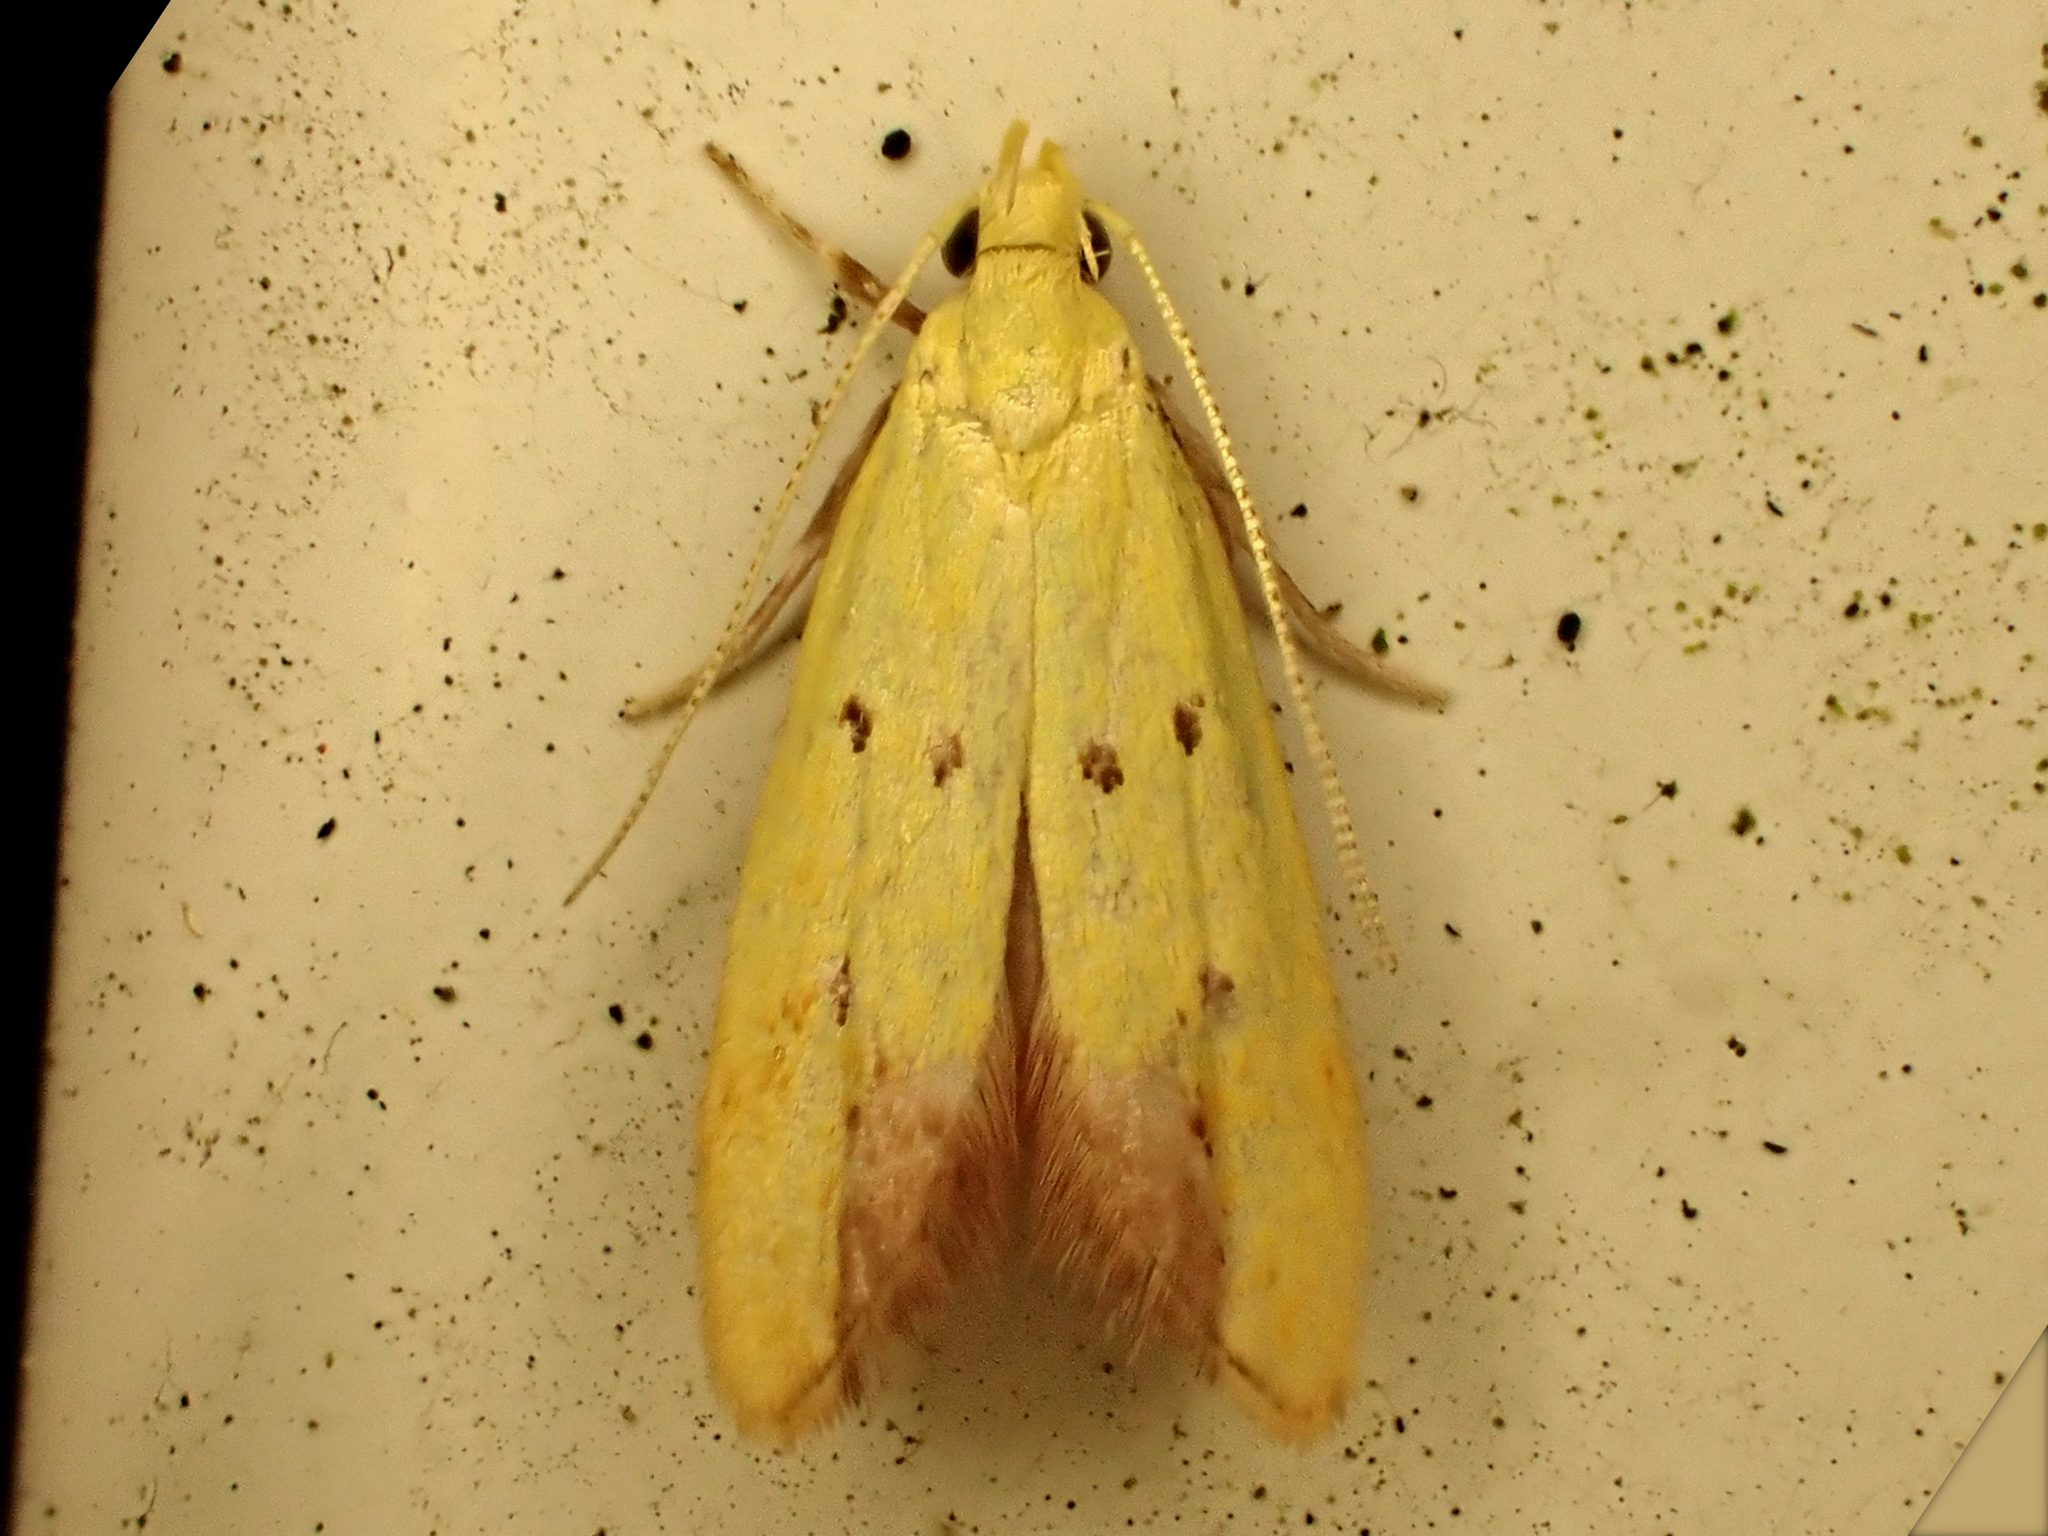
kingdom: Animalia
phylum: Arthropoda
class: Insecta
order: Lepidoptera
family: Oecophoridae
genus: Gymnobathra
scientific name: Gymnobathra flavidella
